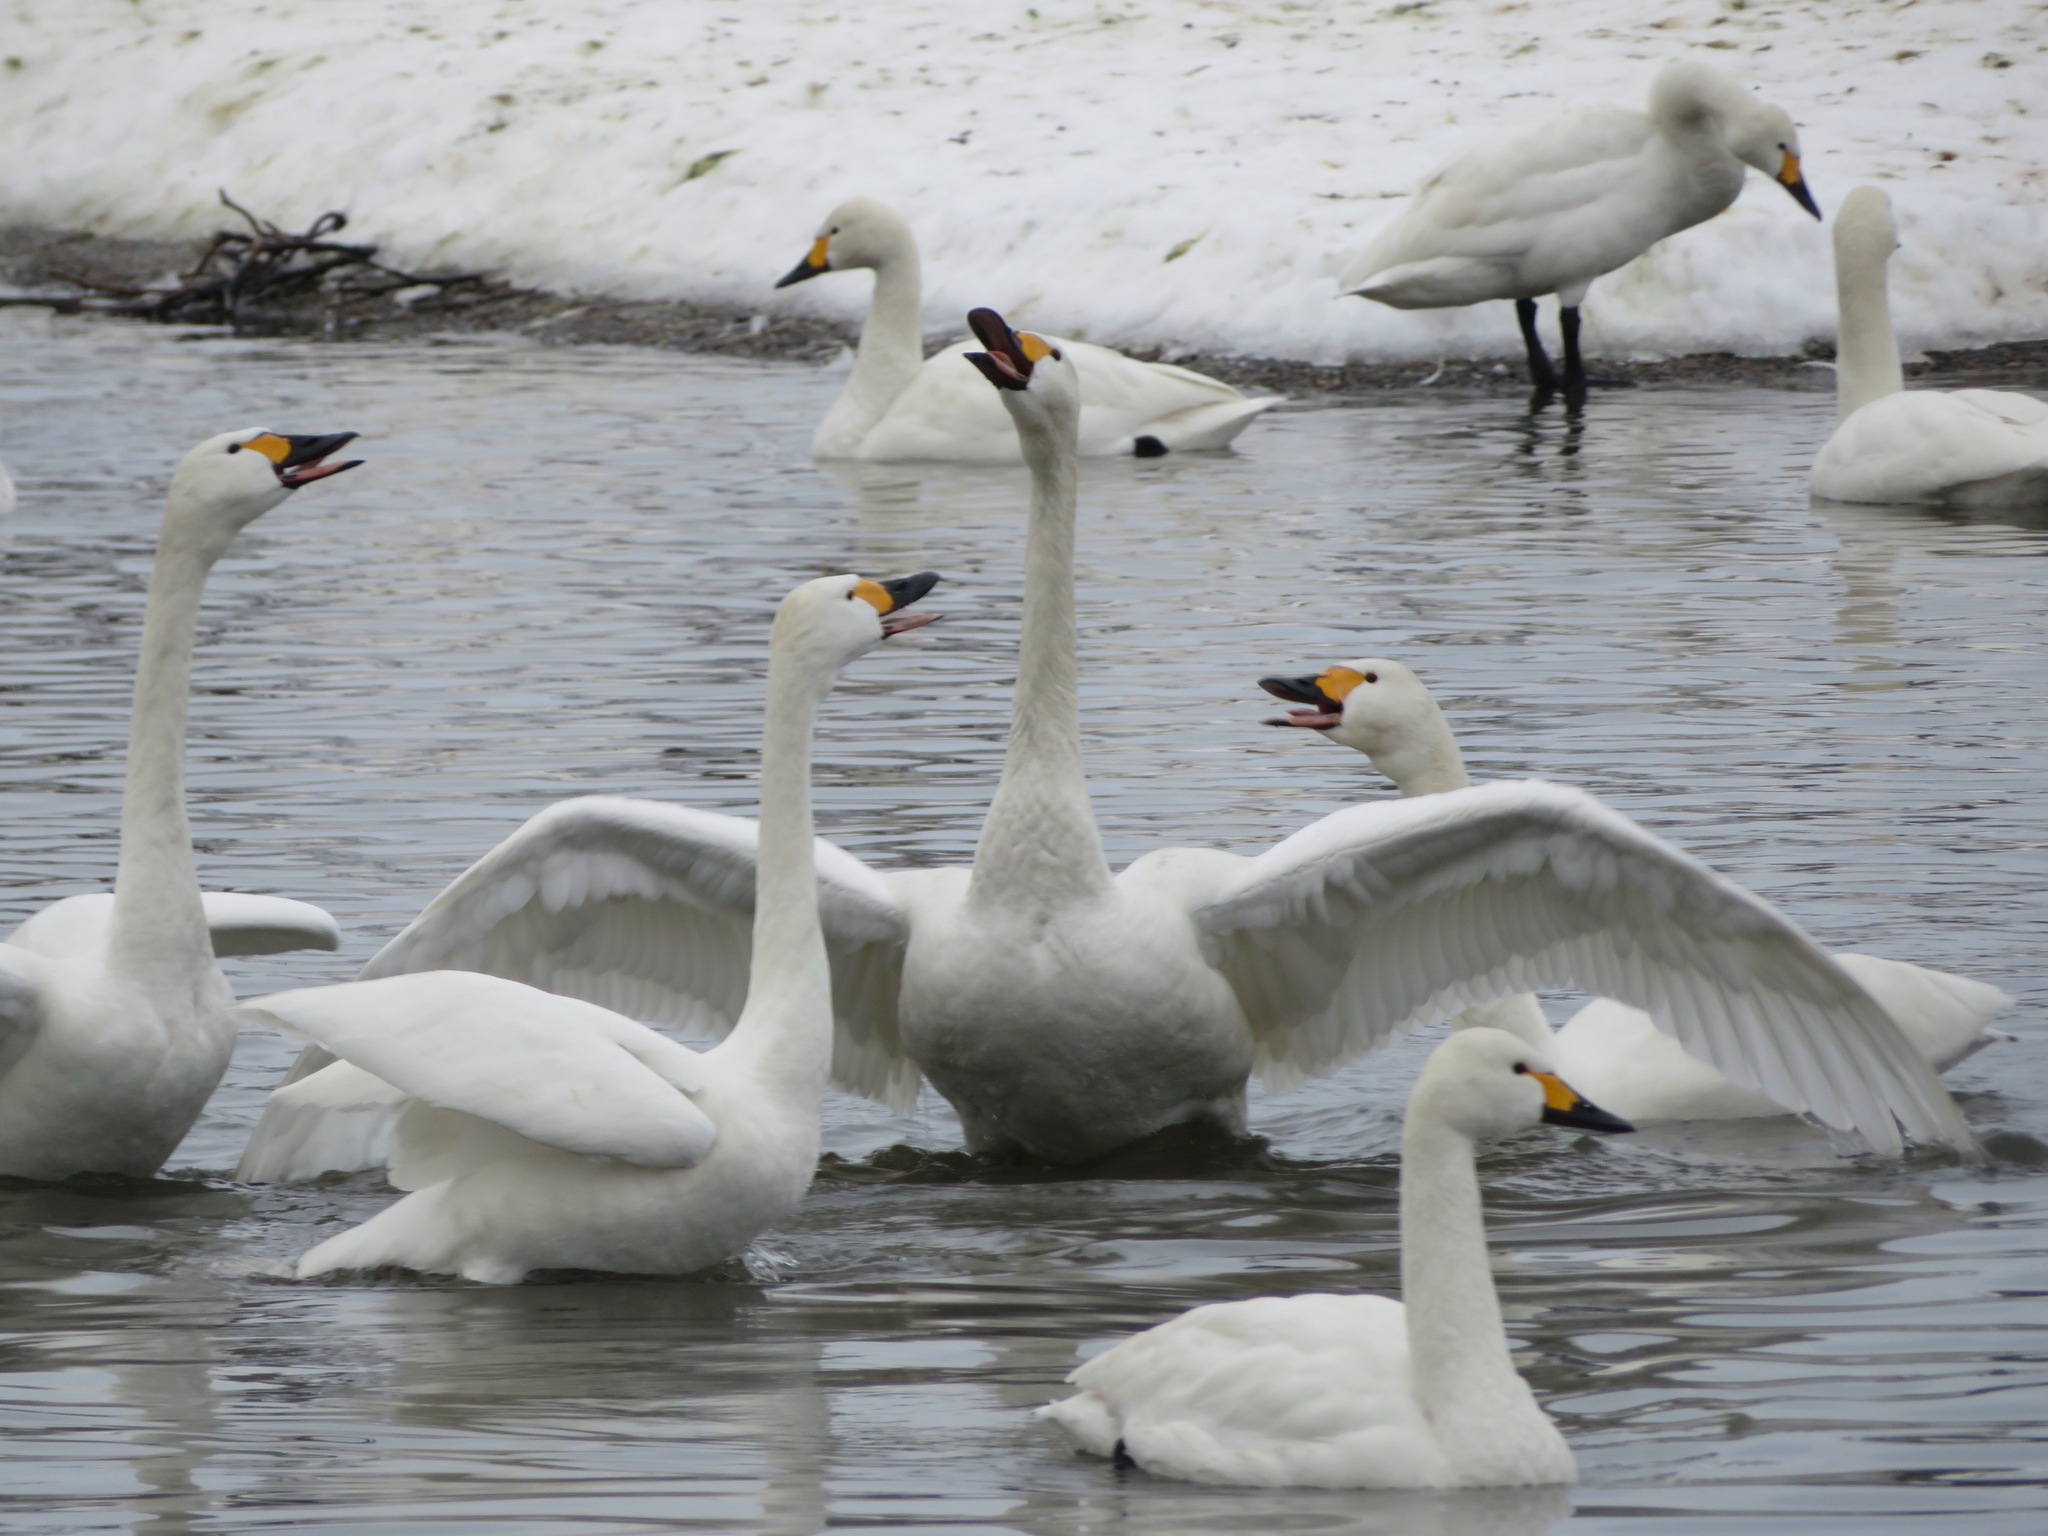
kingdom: Animalia
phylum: Chordata
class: Aves
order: Anseriformes
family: Anatidae
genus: Cygnus
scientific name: Cygnus columbianus
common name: Tundra swan
